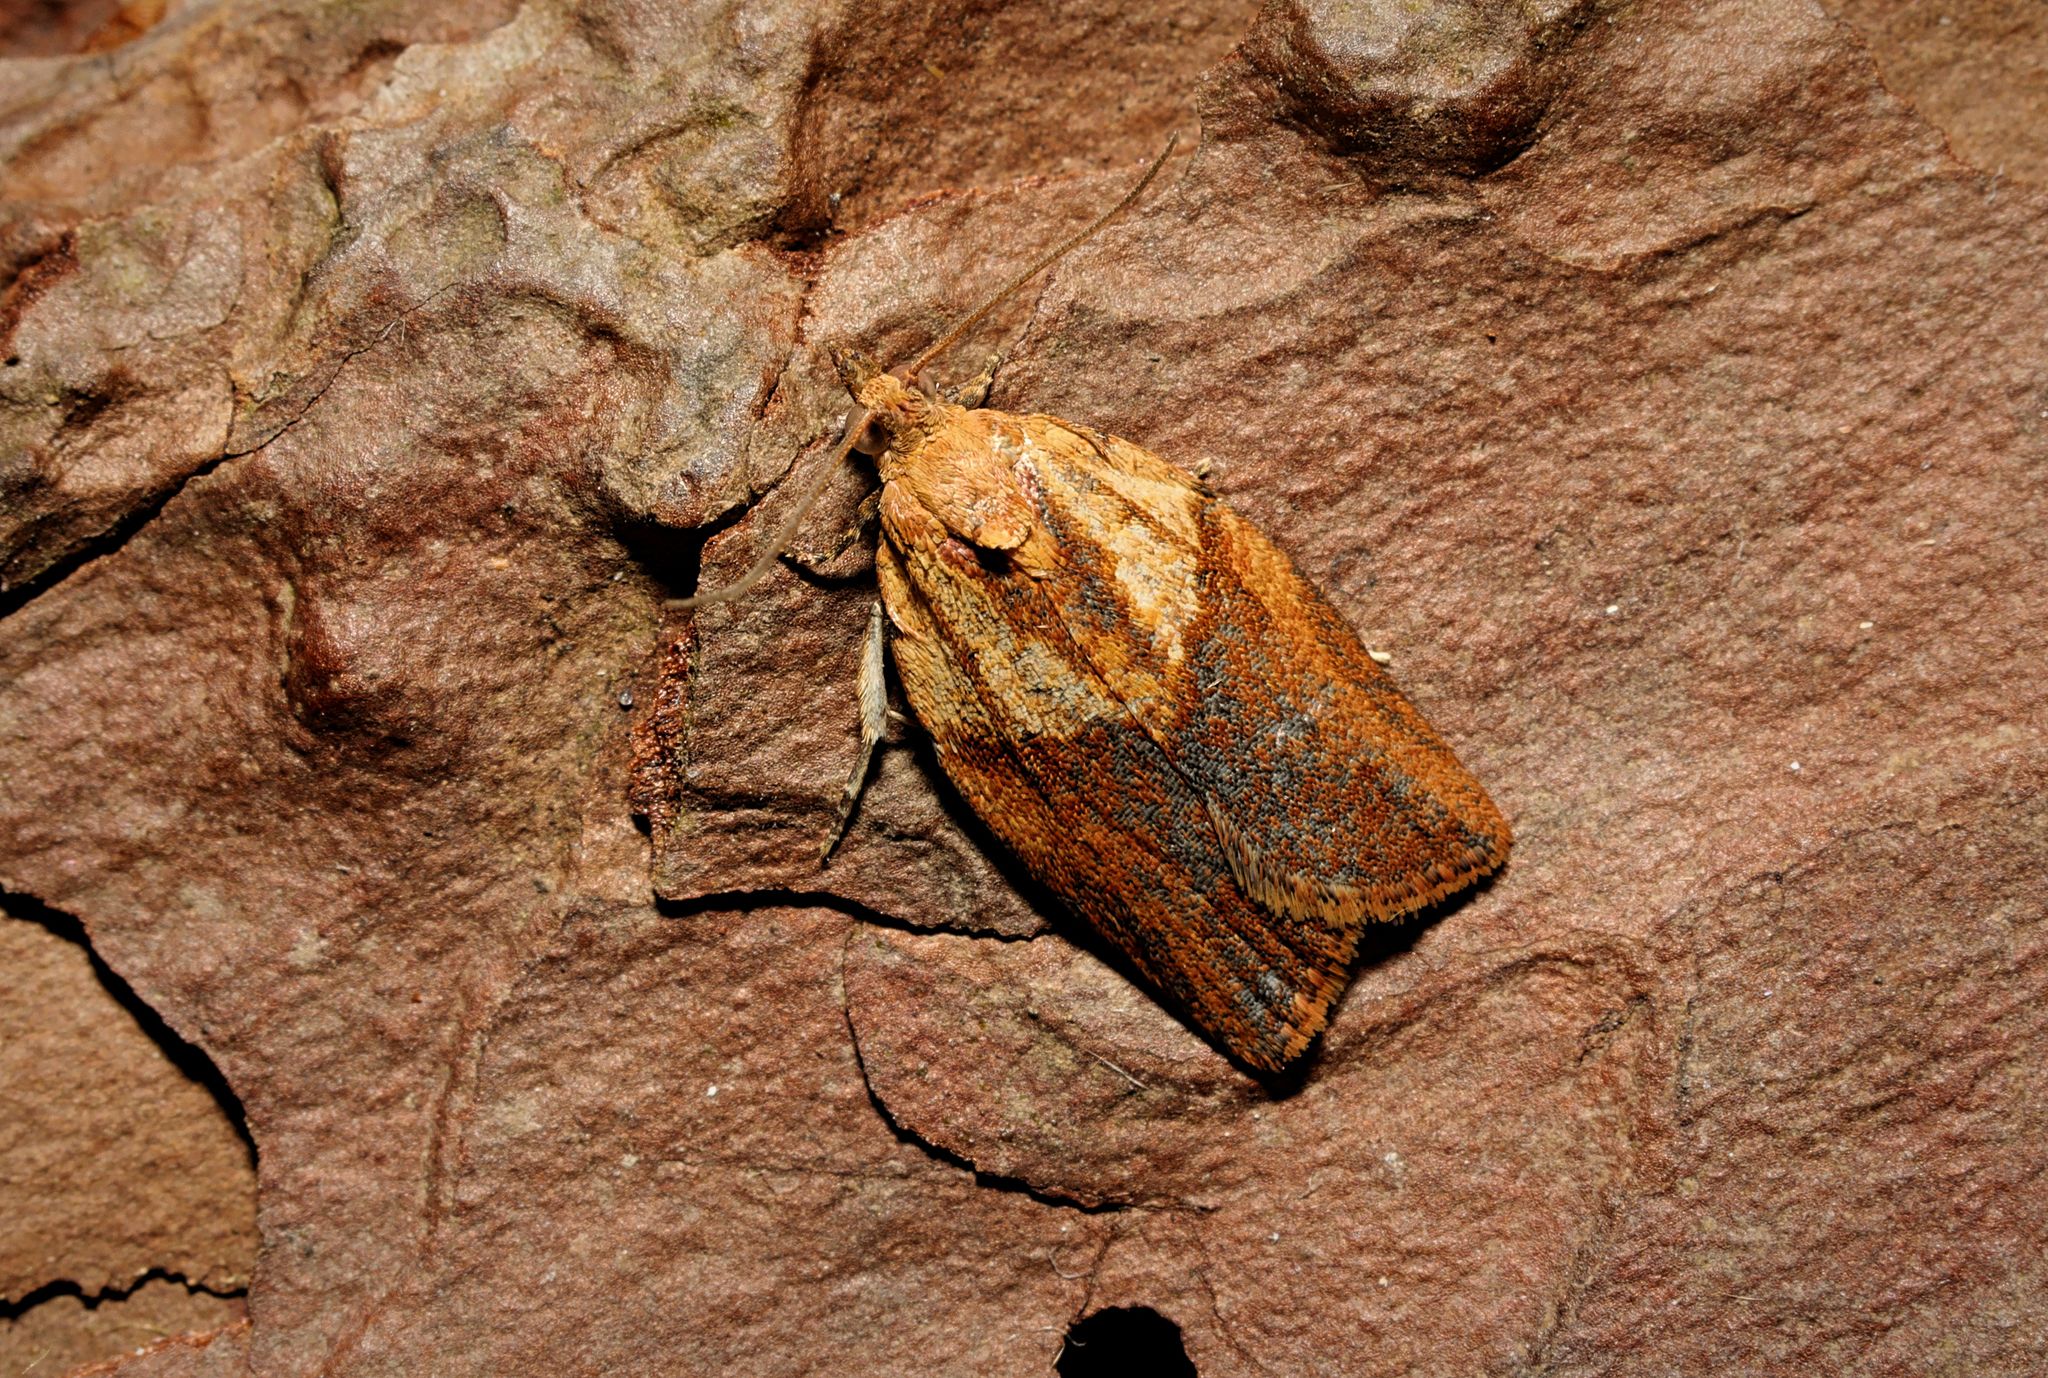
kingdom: Animalia
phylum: Arthropoda
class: Insecta
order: Lepidoptera
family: Tortricidae
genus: Epiphyas
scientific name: Epiphyas postvittana
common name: Light brown apple moth
